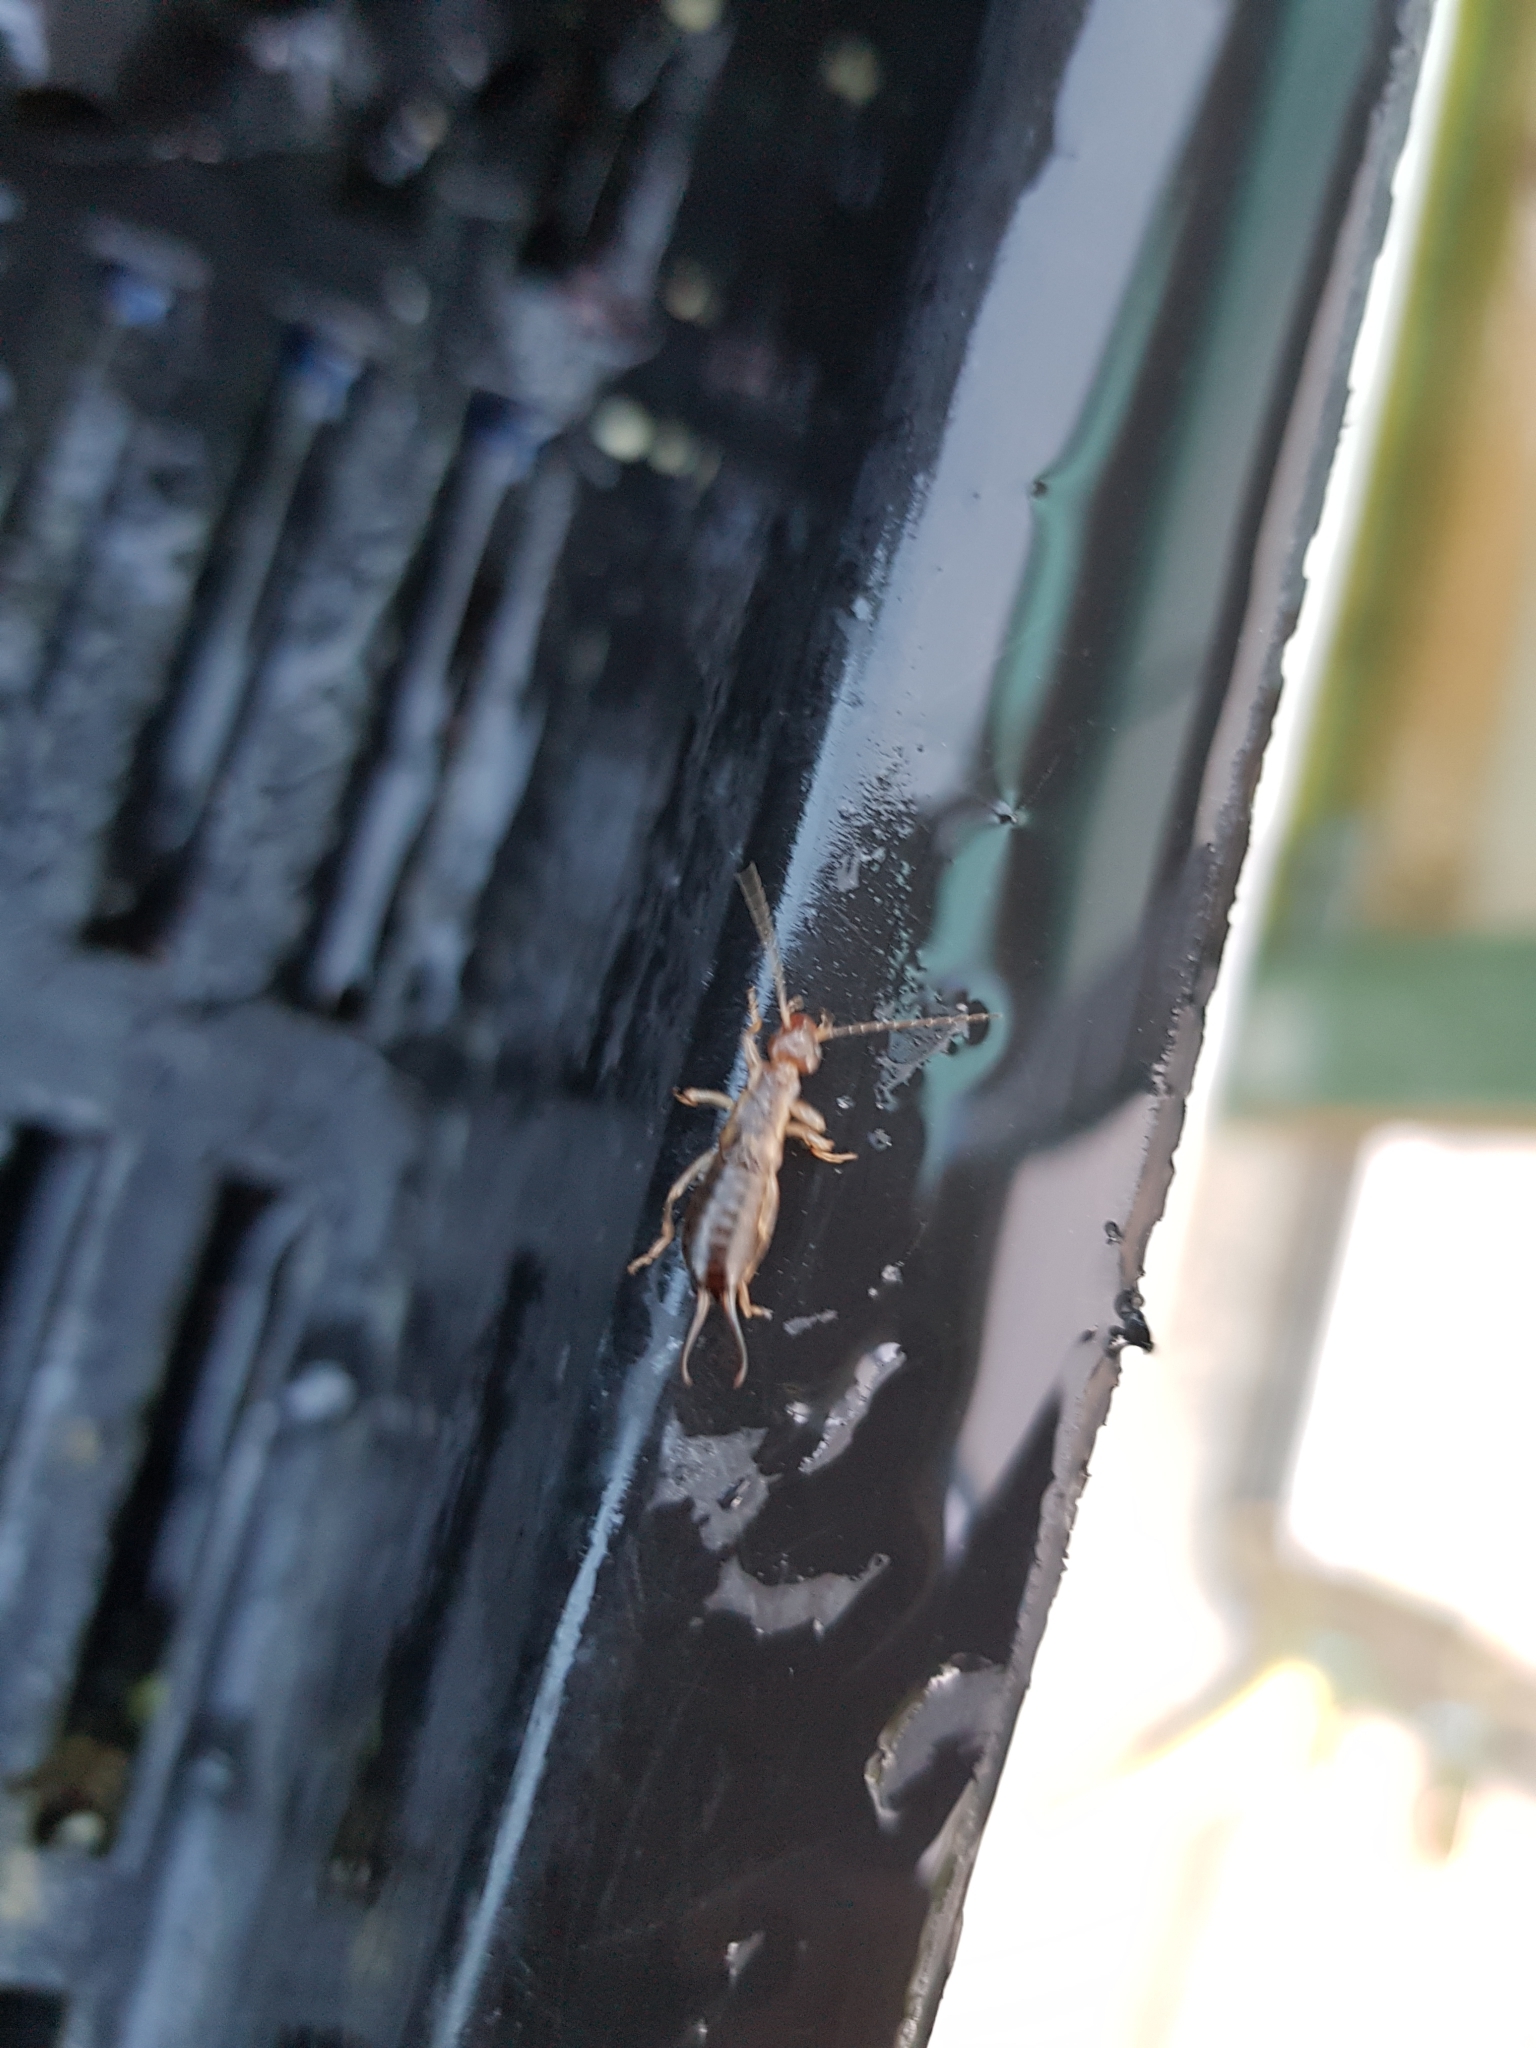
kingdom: Animalia
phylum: Arthropoda
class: Insecta
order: Dermaptera
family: Forficulidae
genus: Forficula
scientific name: Forficula
